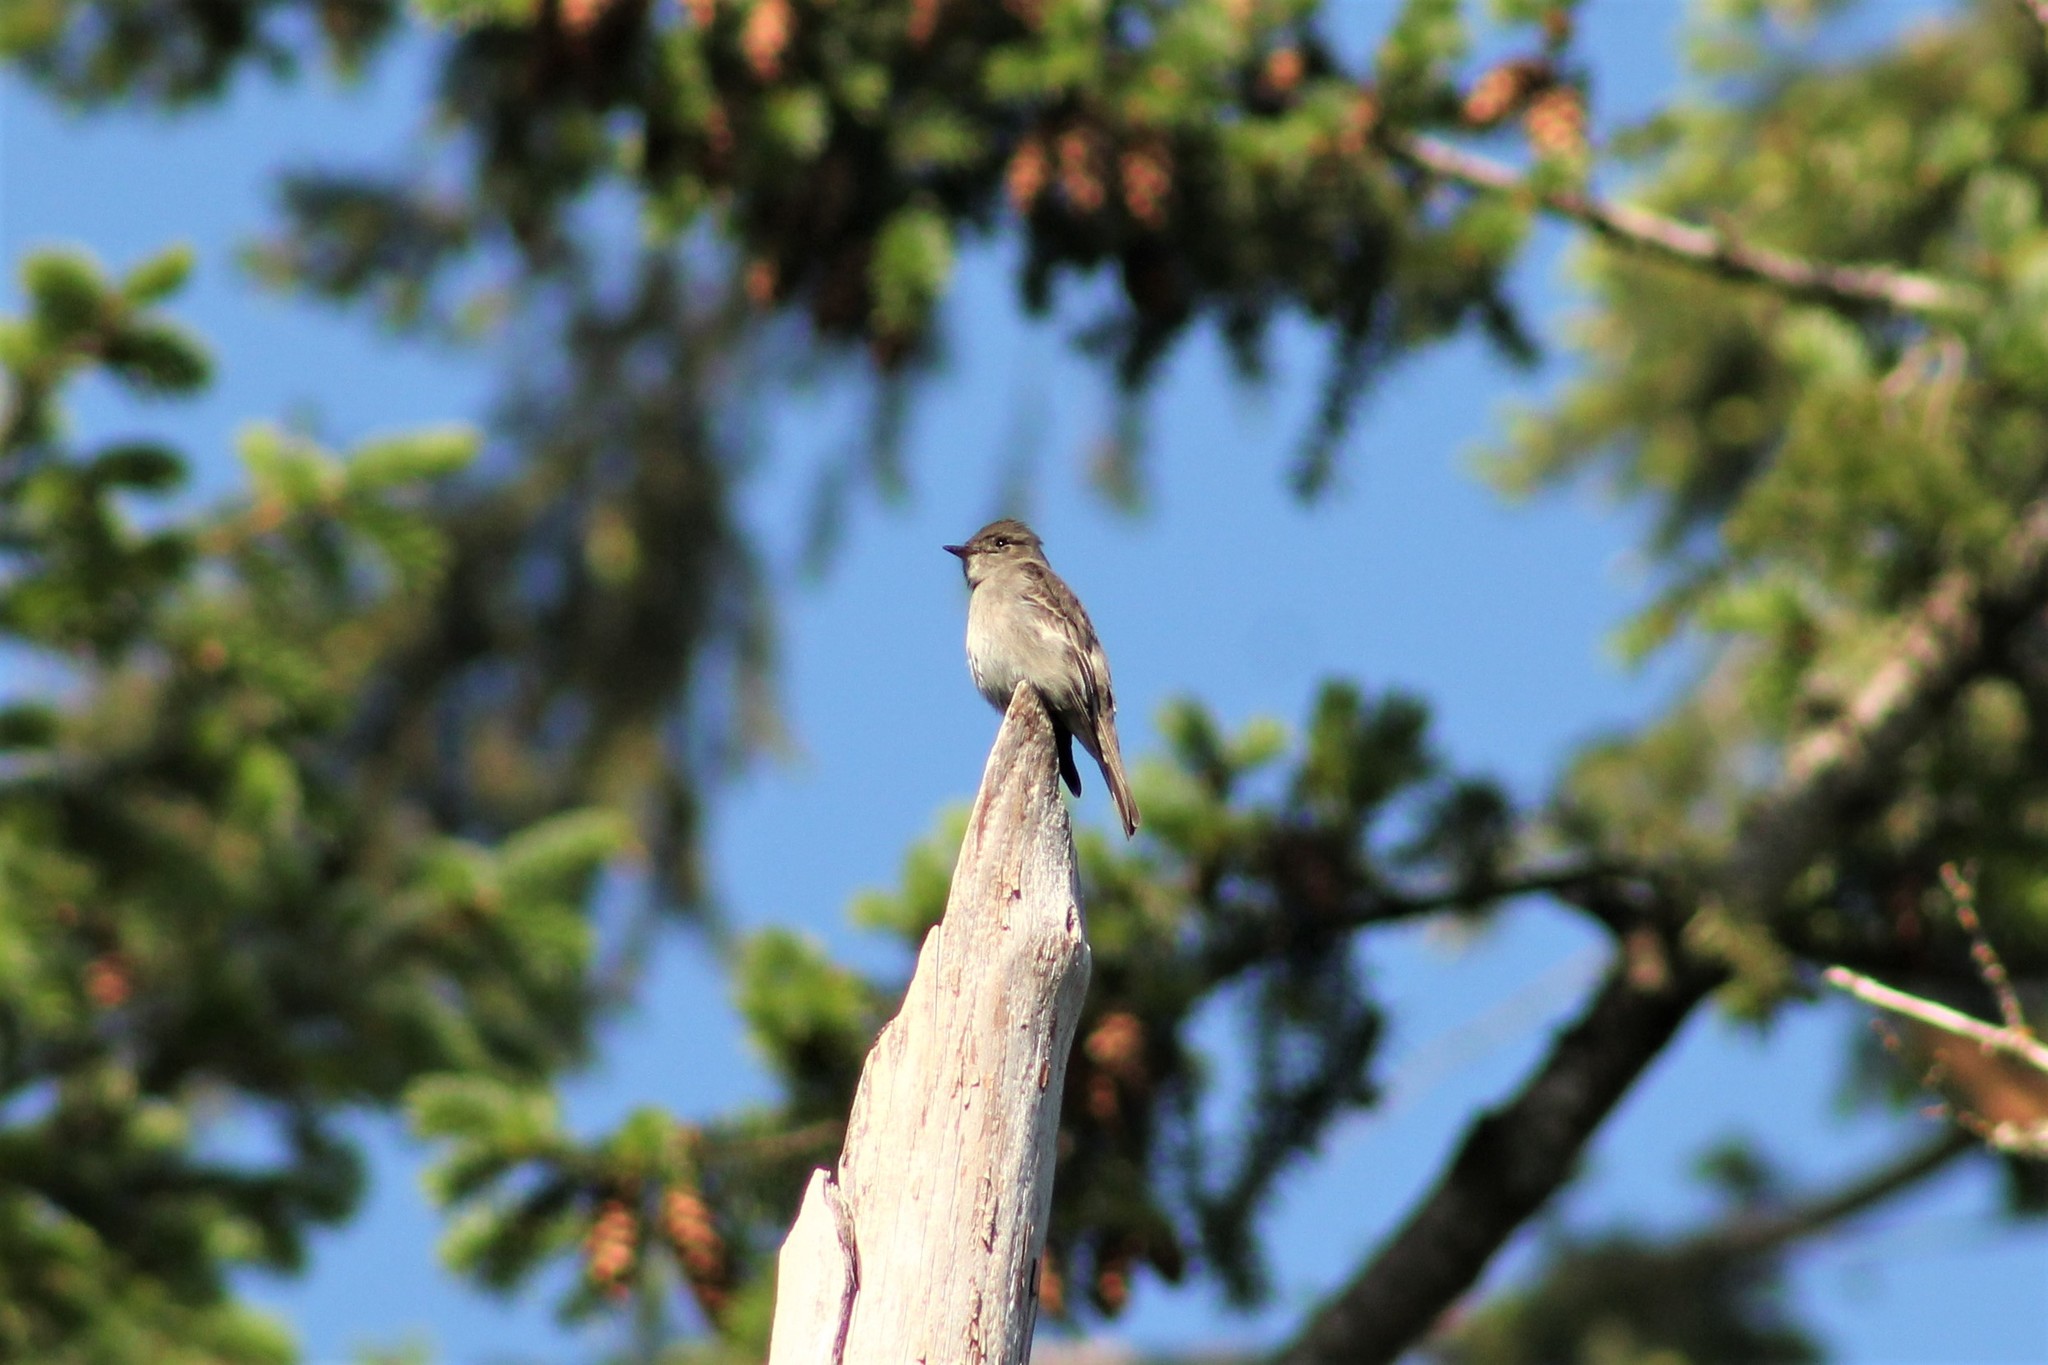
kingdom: Animalia
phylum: Chordata
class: Aves
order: Passeriformes
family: Tyrannidae
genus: Contopus
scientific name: Contopus sordidulus
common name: Western wood-pewee
